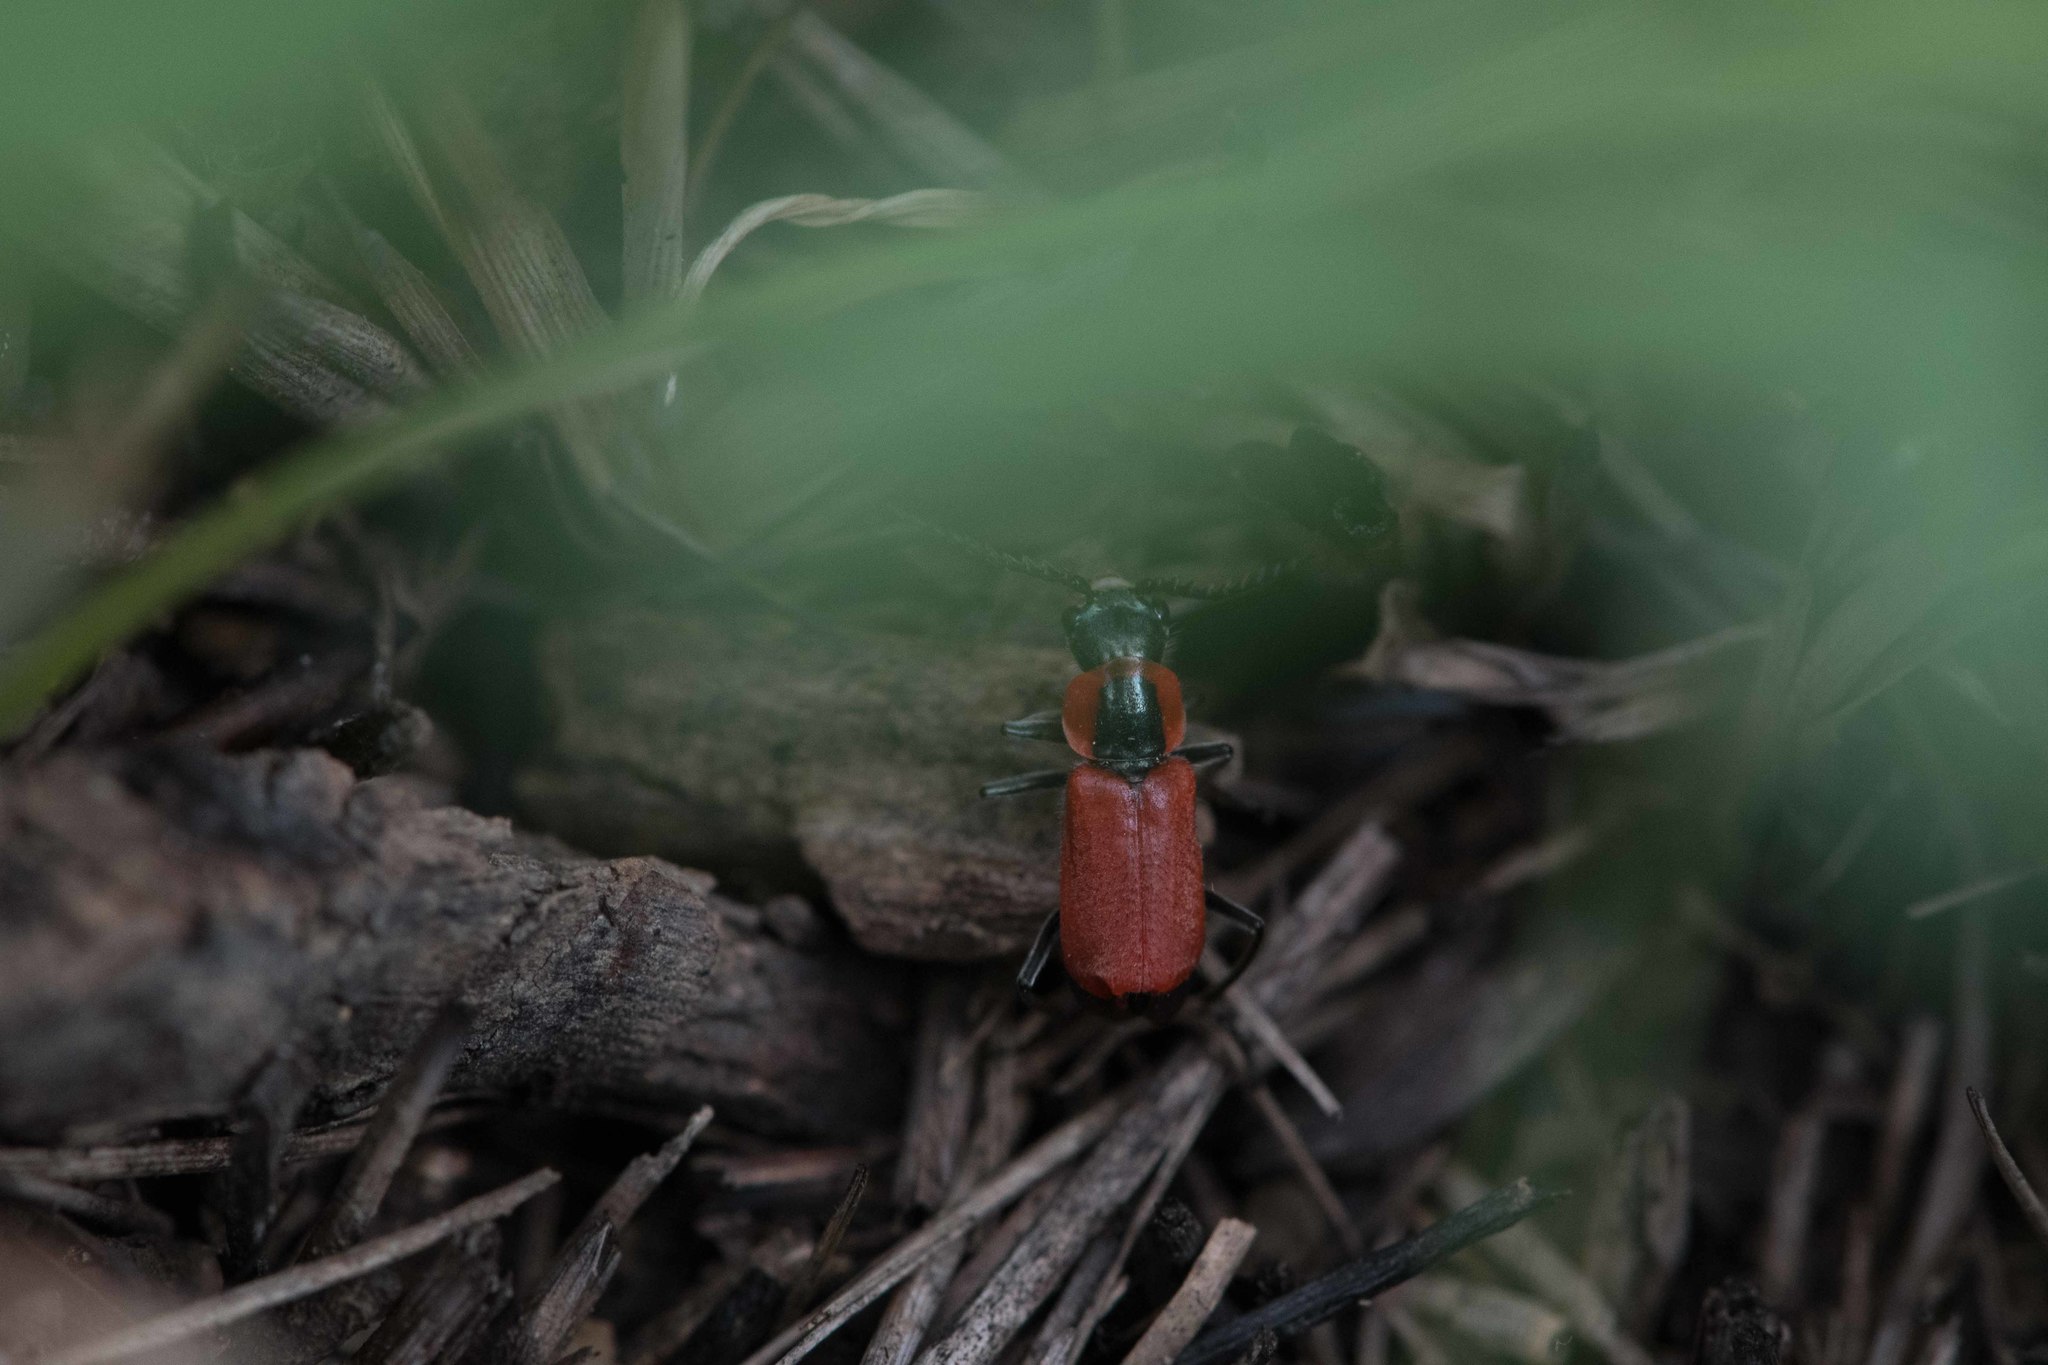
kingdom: Animalia
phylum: Arthropoda
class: Insecta
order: Coleoptera
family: Malachiidae
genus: Clanoptilus
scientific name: Clanoptilus rufus
